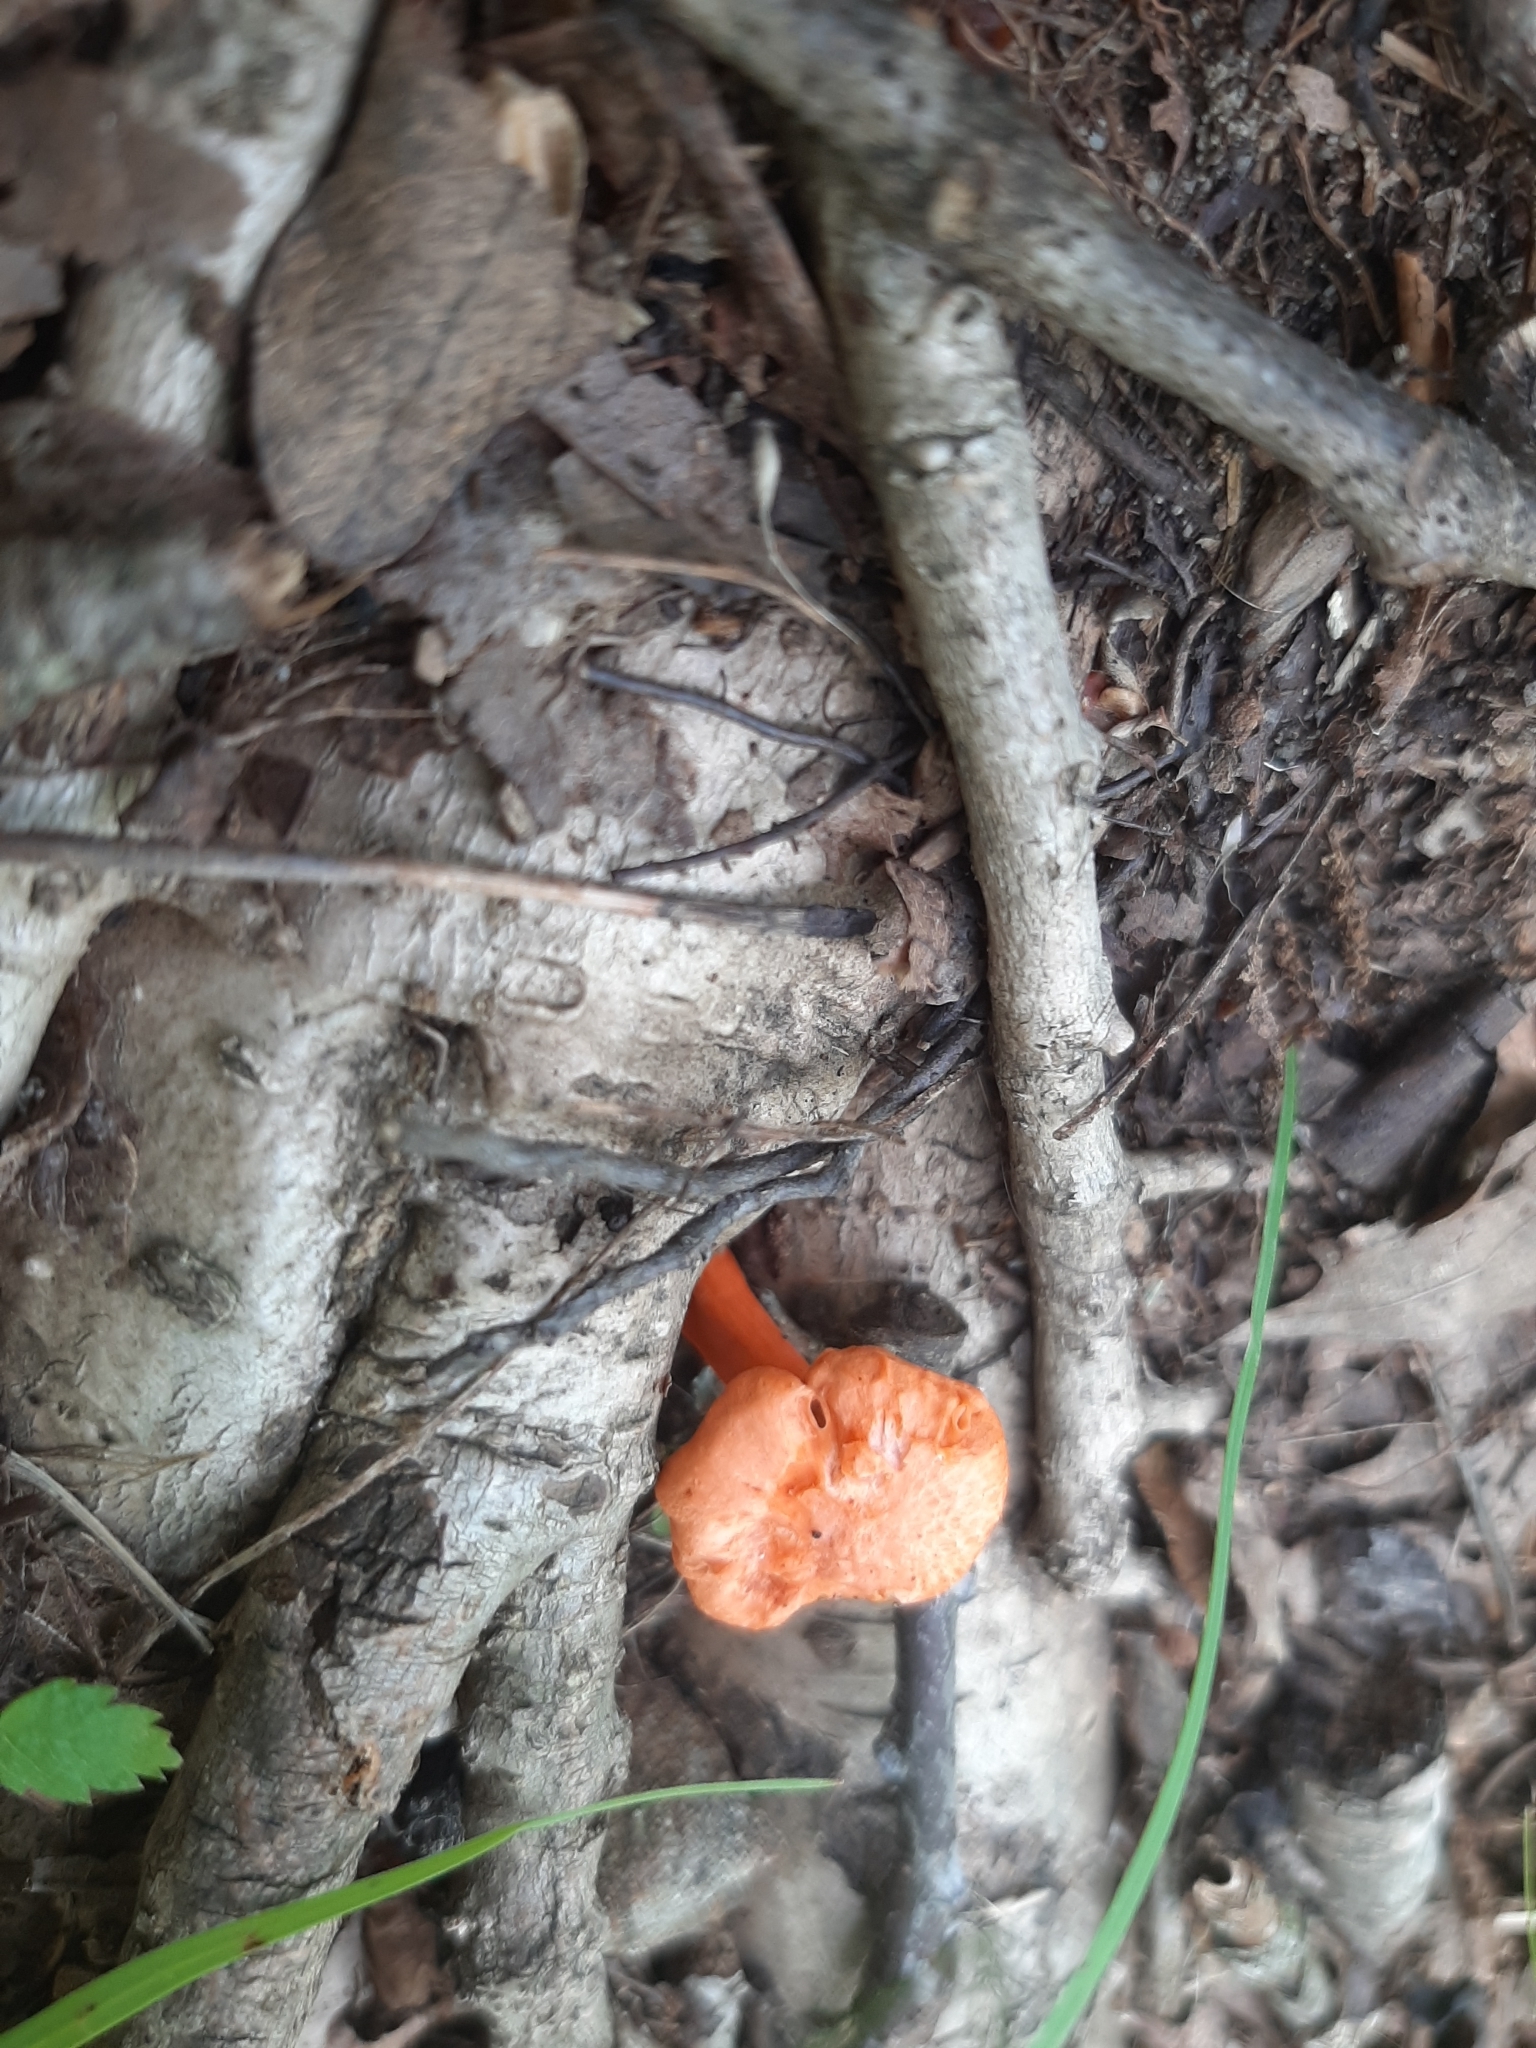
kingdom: Fungi
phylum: Basidiomycota
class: Agaricomycetes
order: Cantharellales
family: Hydnaceae
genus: Cantharellus
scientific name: Cantharellus cinnabarinus
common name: Cinnabar chanterelle
